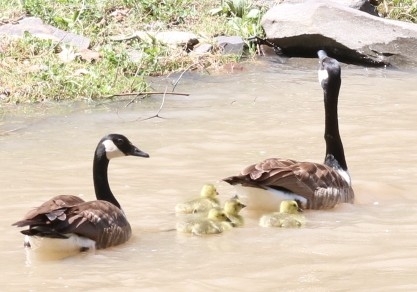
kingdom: Animalia
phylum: Chordata
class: Aves
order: Anseriformes
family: Anatidae
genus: Branta
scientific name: Branta canadensis
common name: Canada goose
